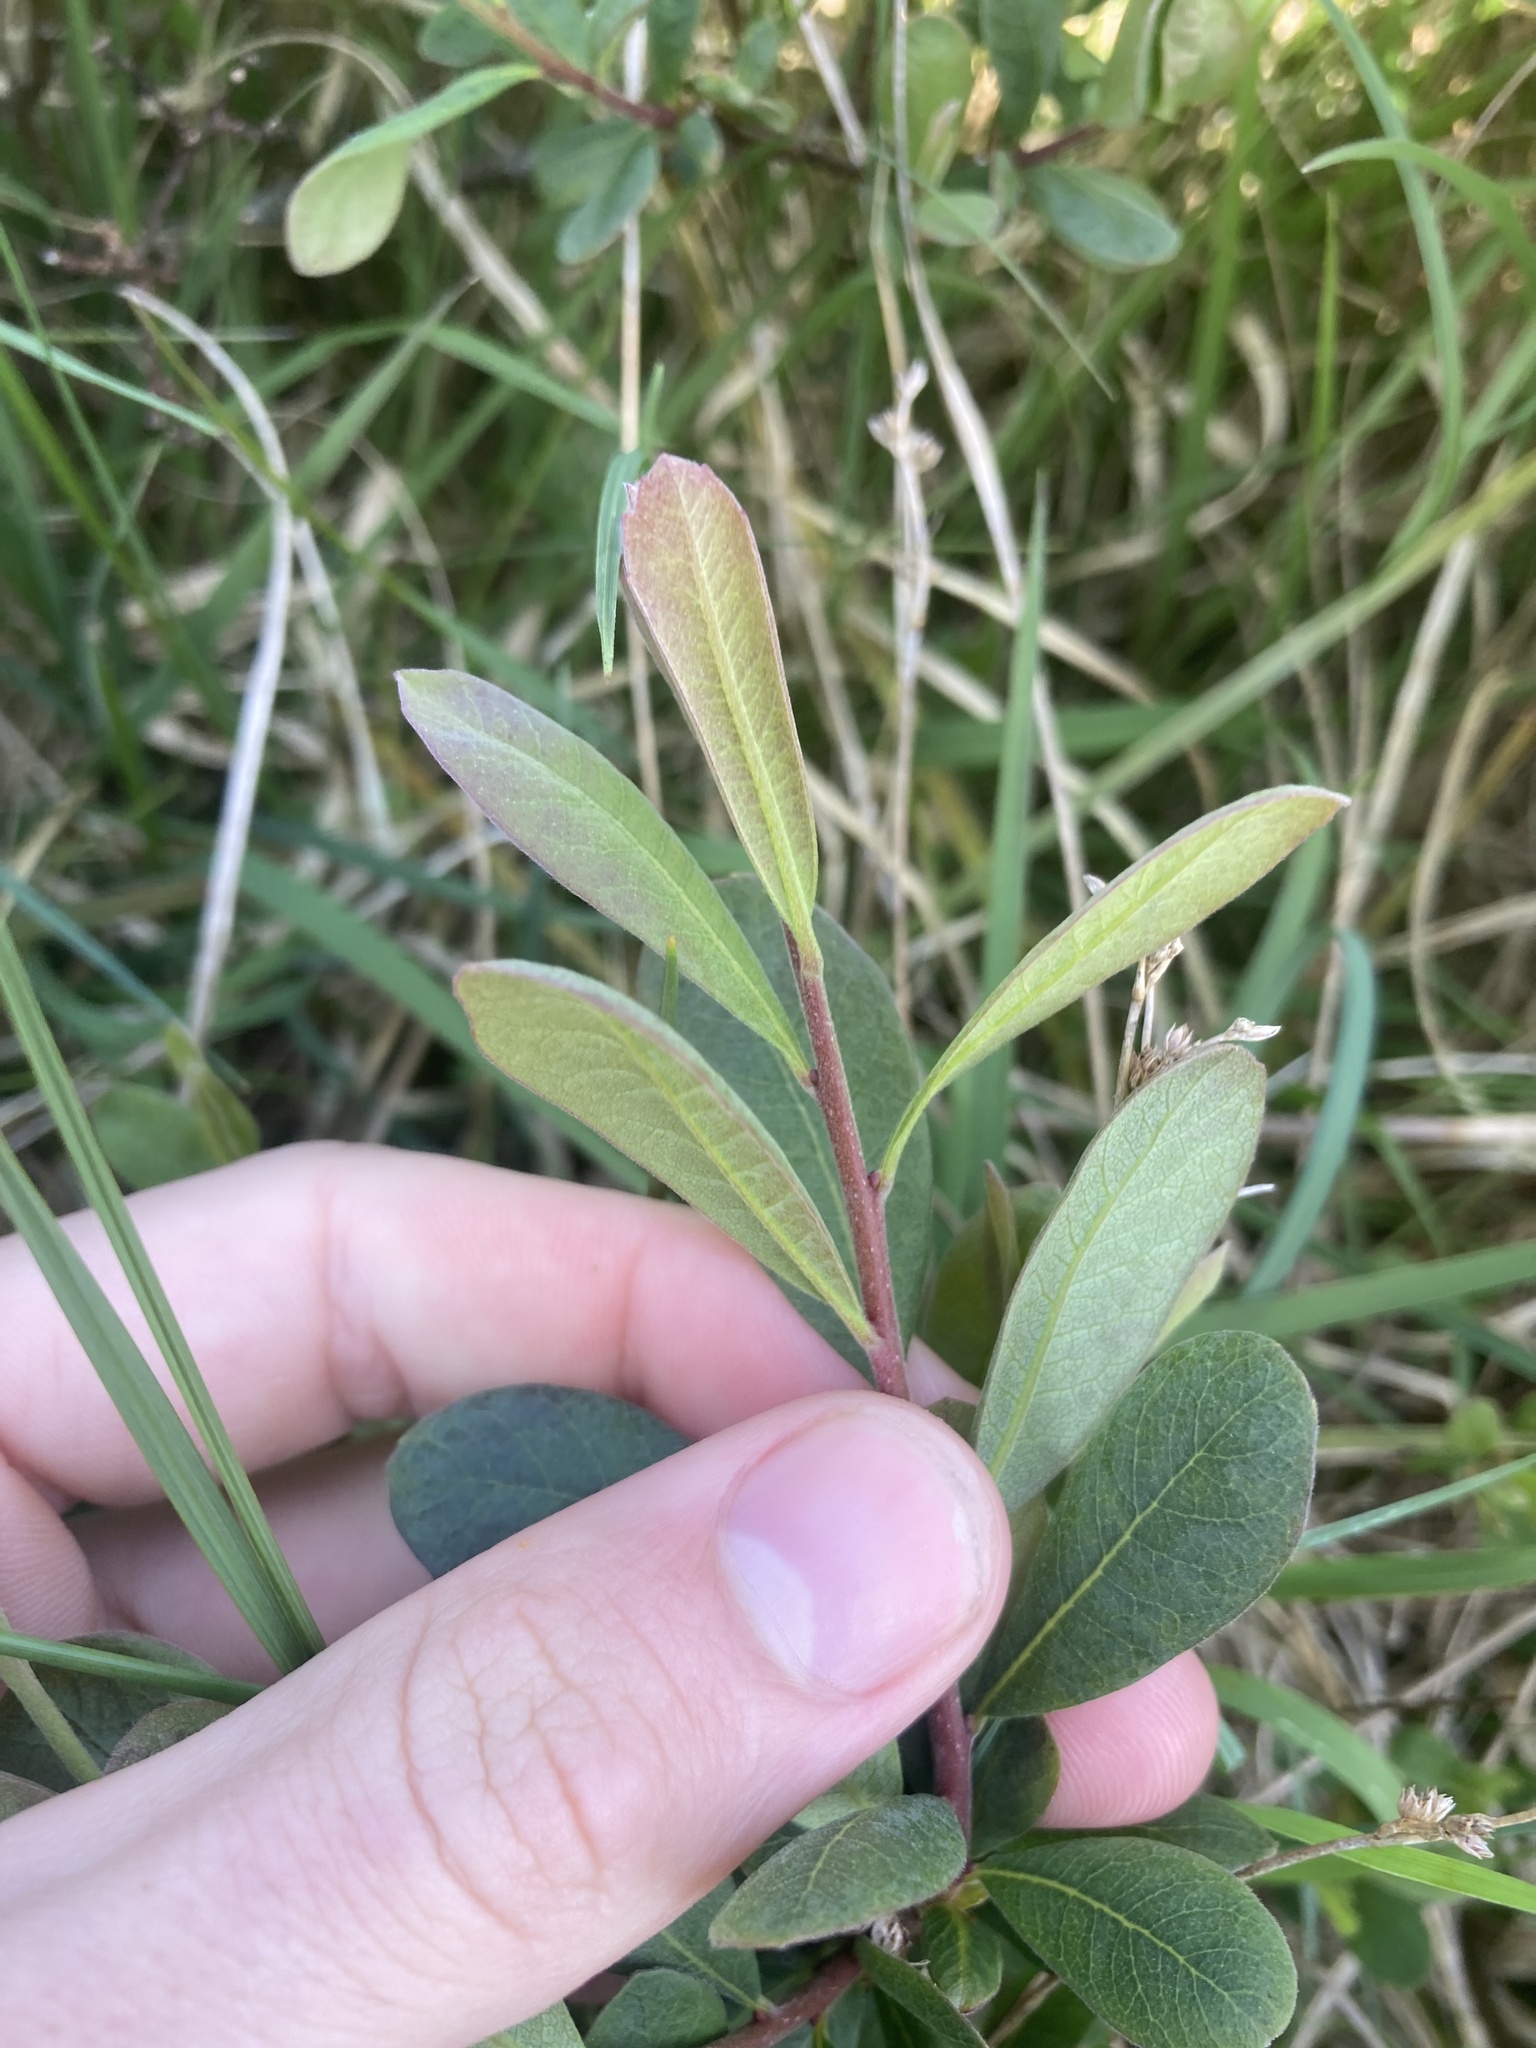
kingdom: Plantae
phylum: Tracheophyta
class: Magnoliopsida
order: Fagales
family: Myricaceae
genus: Myrica
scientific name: Myrica gale
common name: Sweet gale
